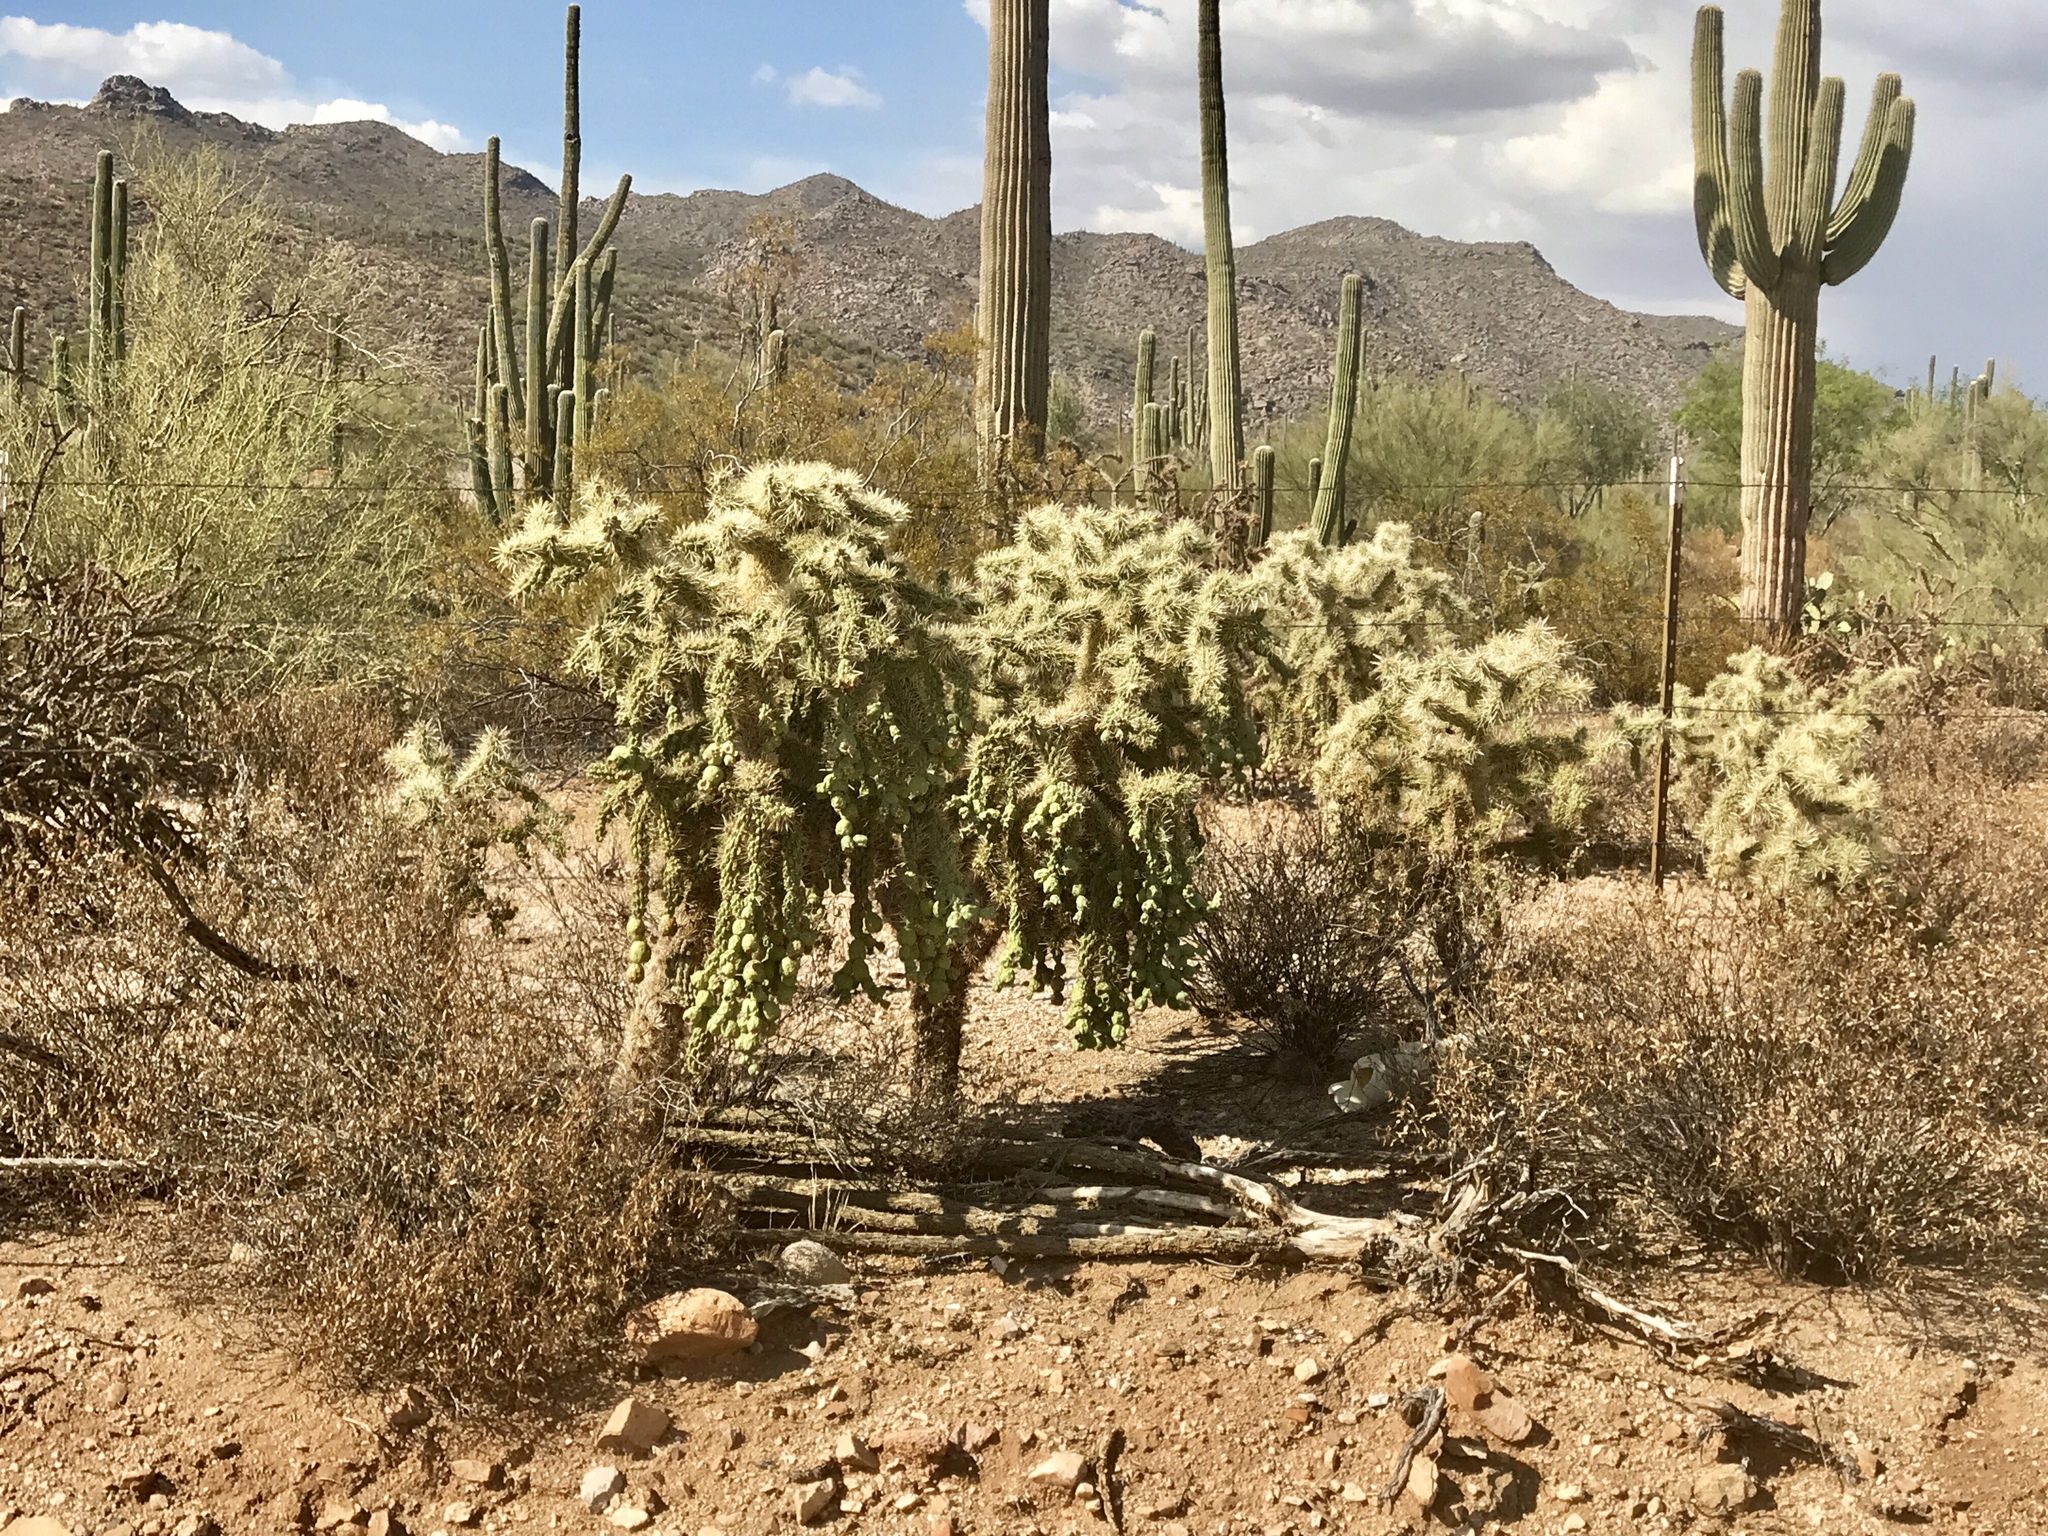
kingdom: Plantae
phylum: Tracheophyta
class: Magnoliopsida
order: Caryophyllales
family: Cactaceae
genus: Cylindropuntia
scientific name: Cylindropuntia fulgida
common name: Jumping cholla
